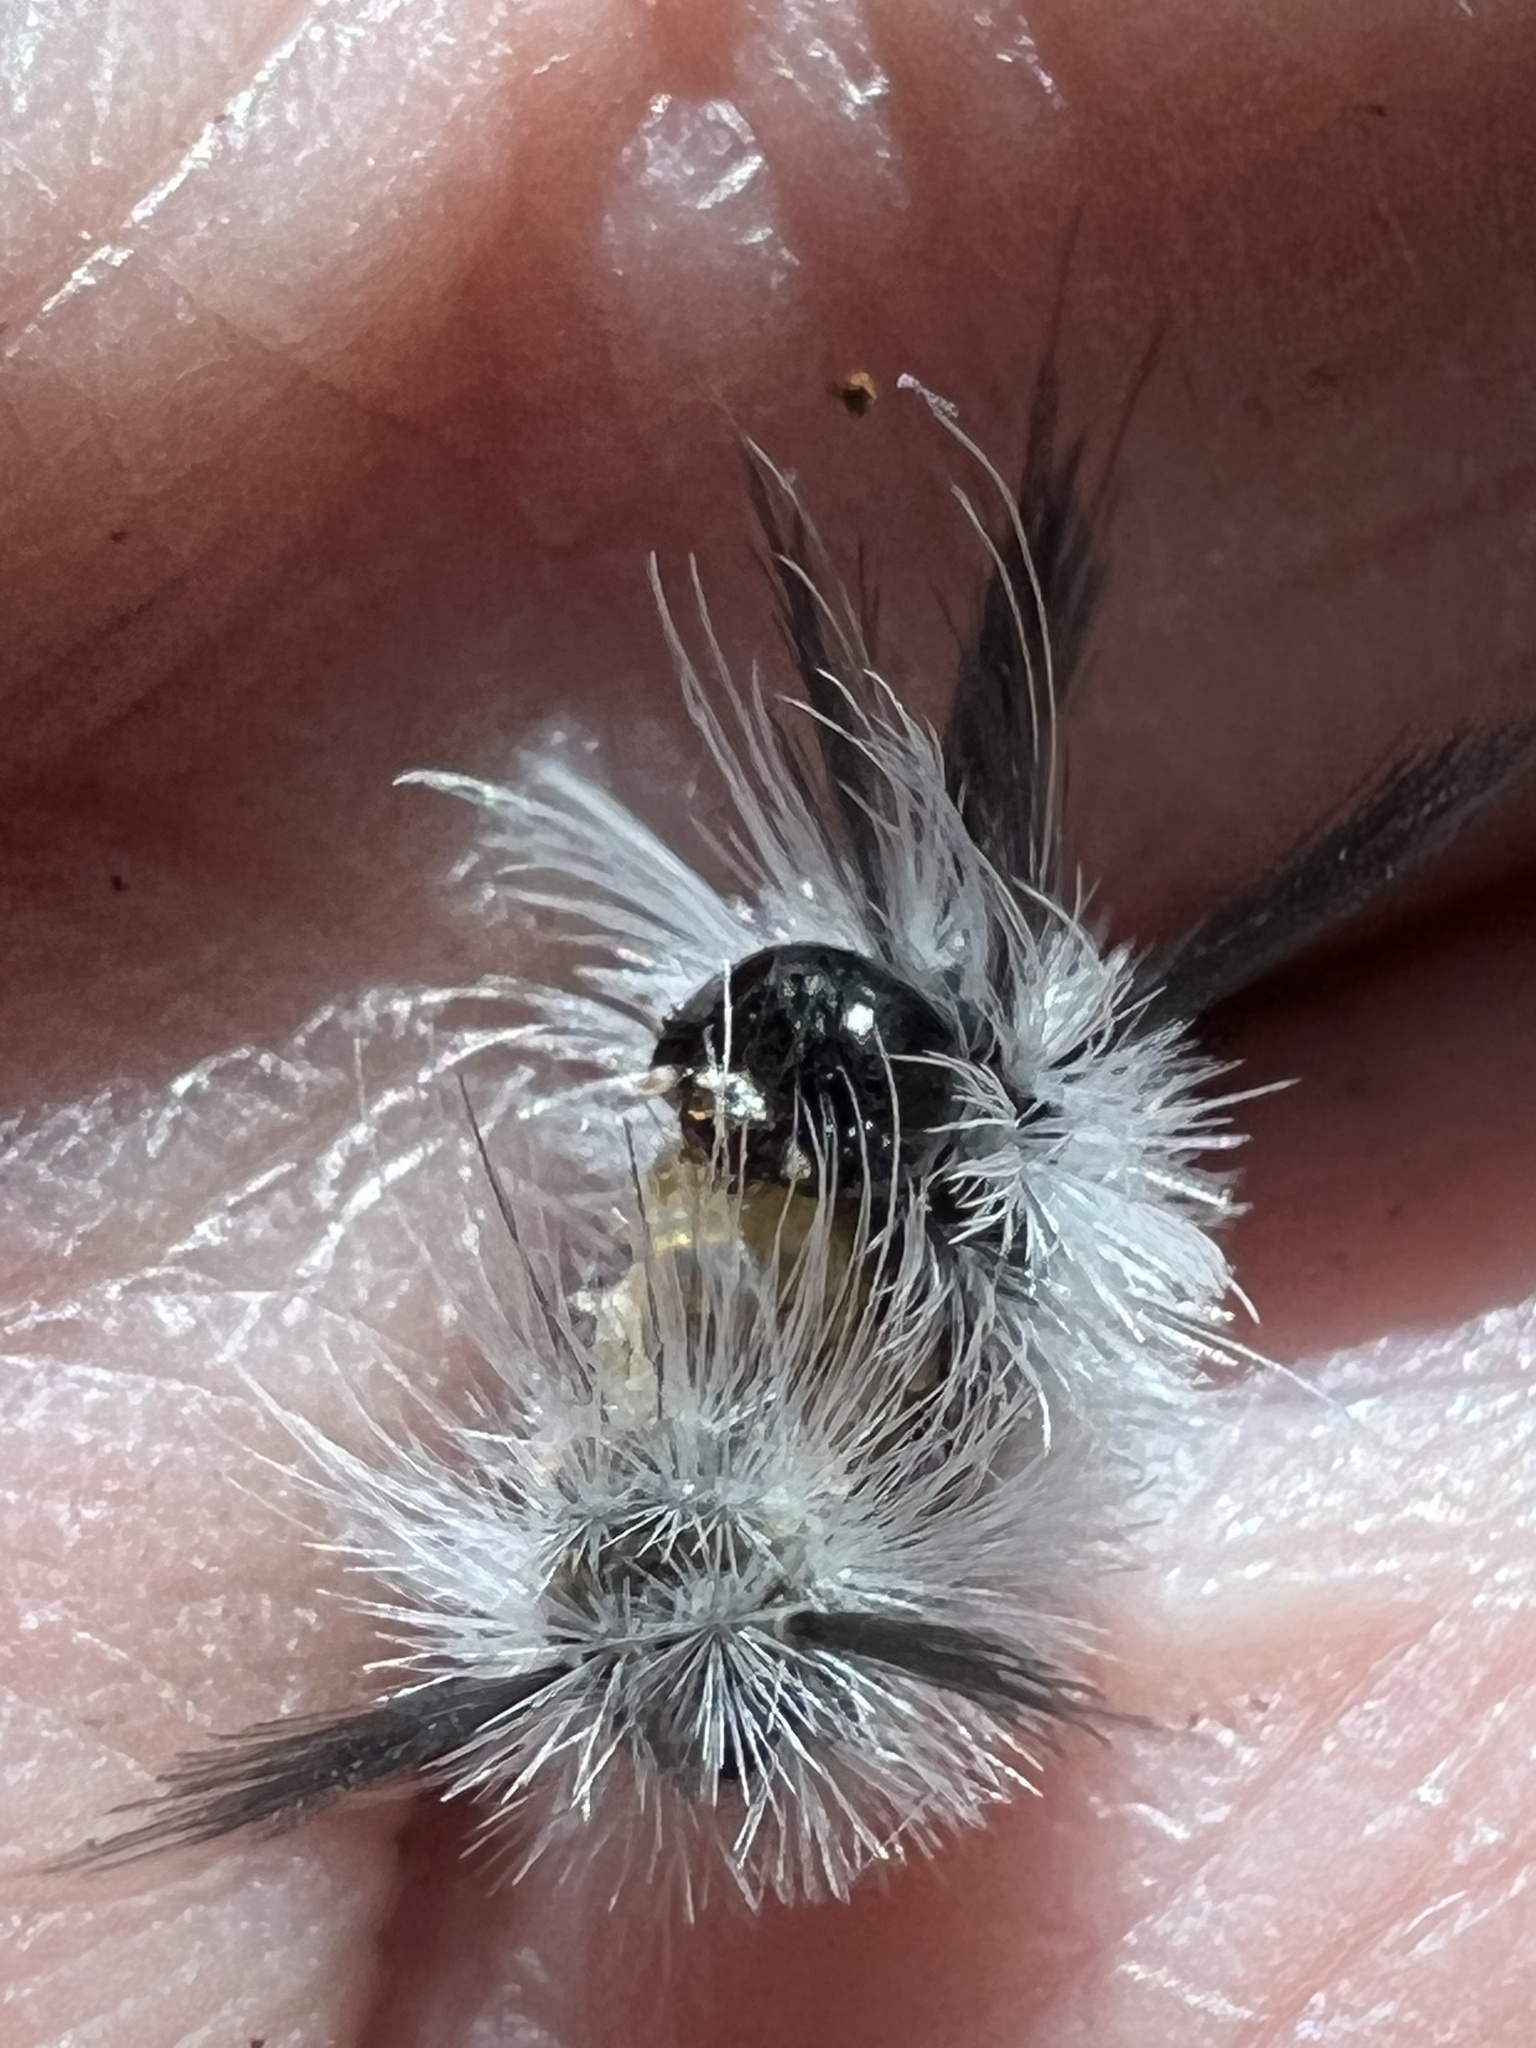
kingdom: Animalia
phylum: Arthropoda
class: Insecta
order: Lepidoptera
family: Erebidae
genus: Halysidota
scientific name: Halysidota tessellaris
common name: Banded tussock moth
